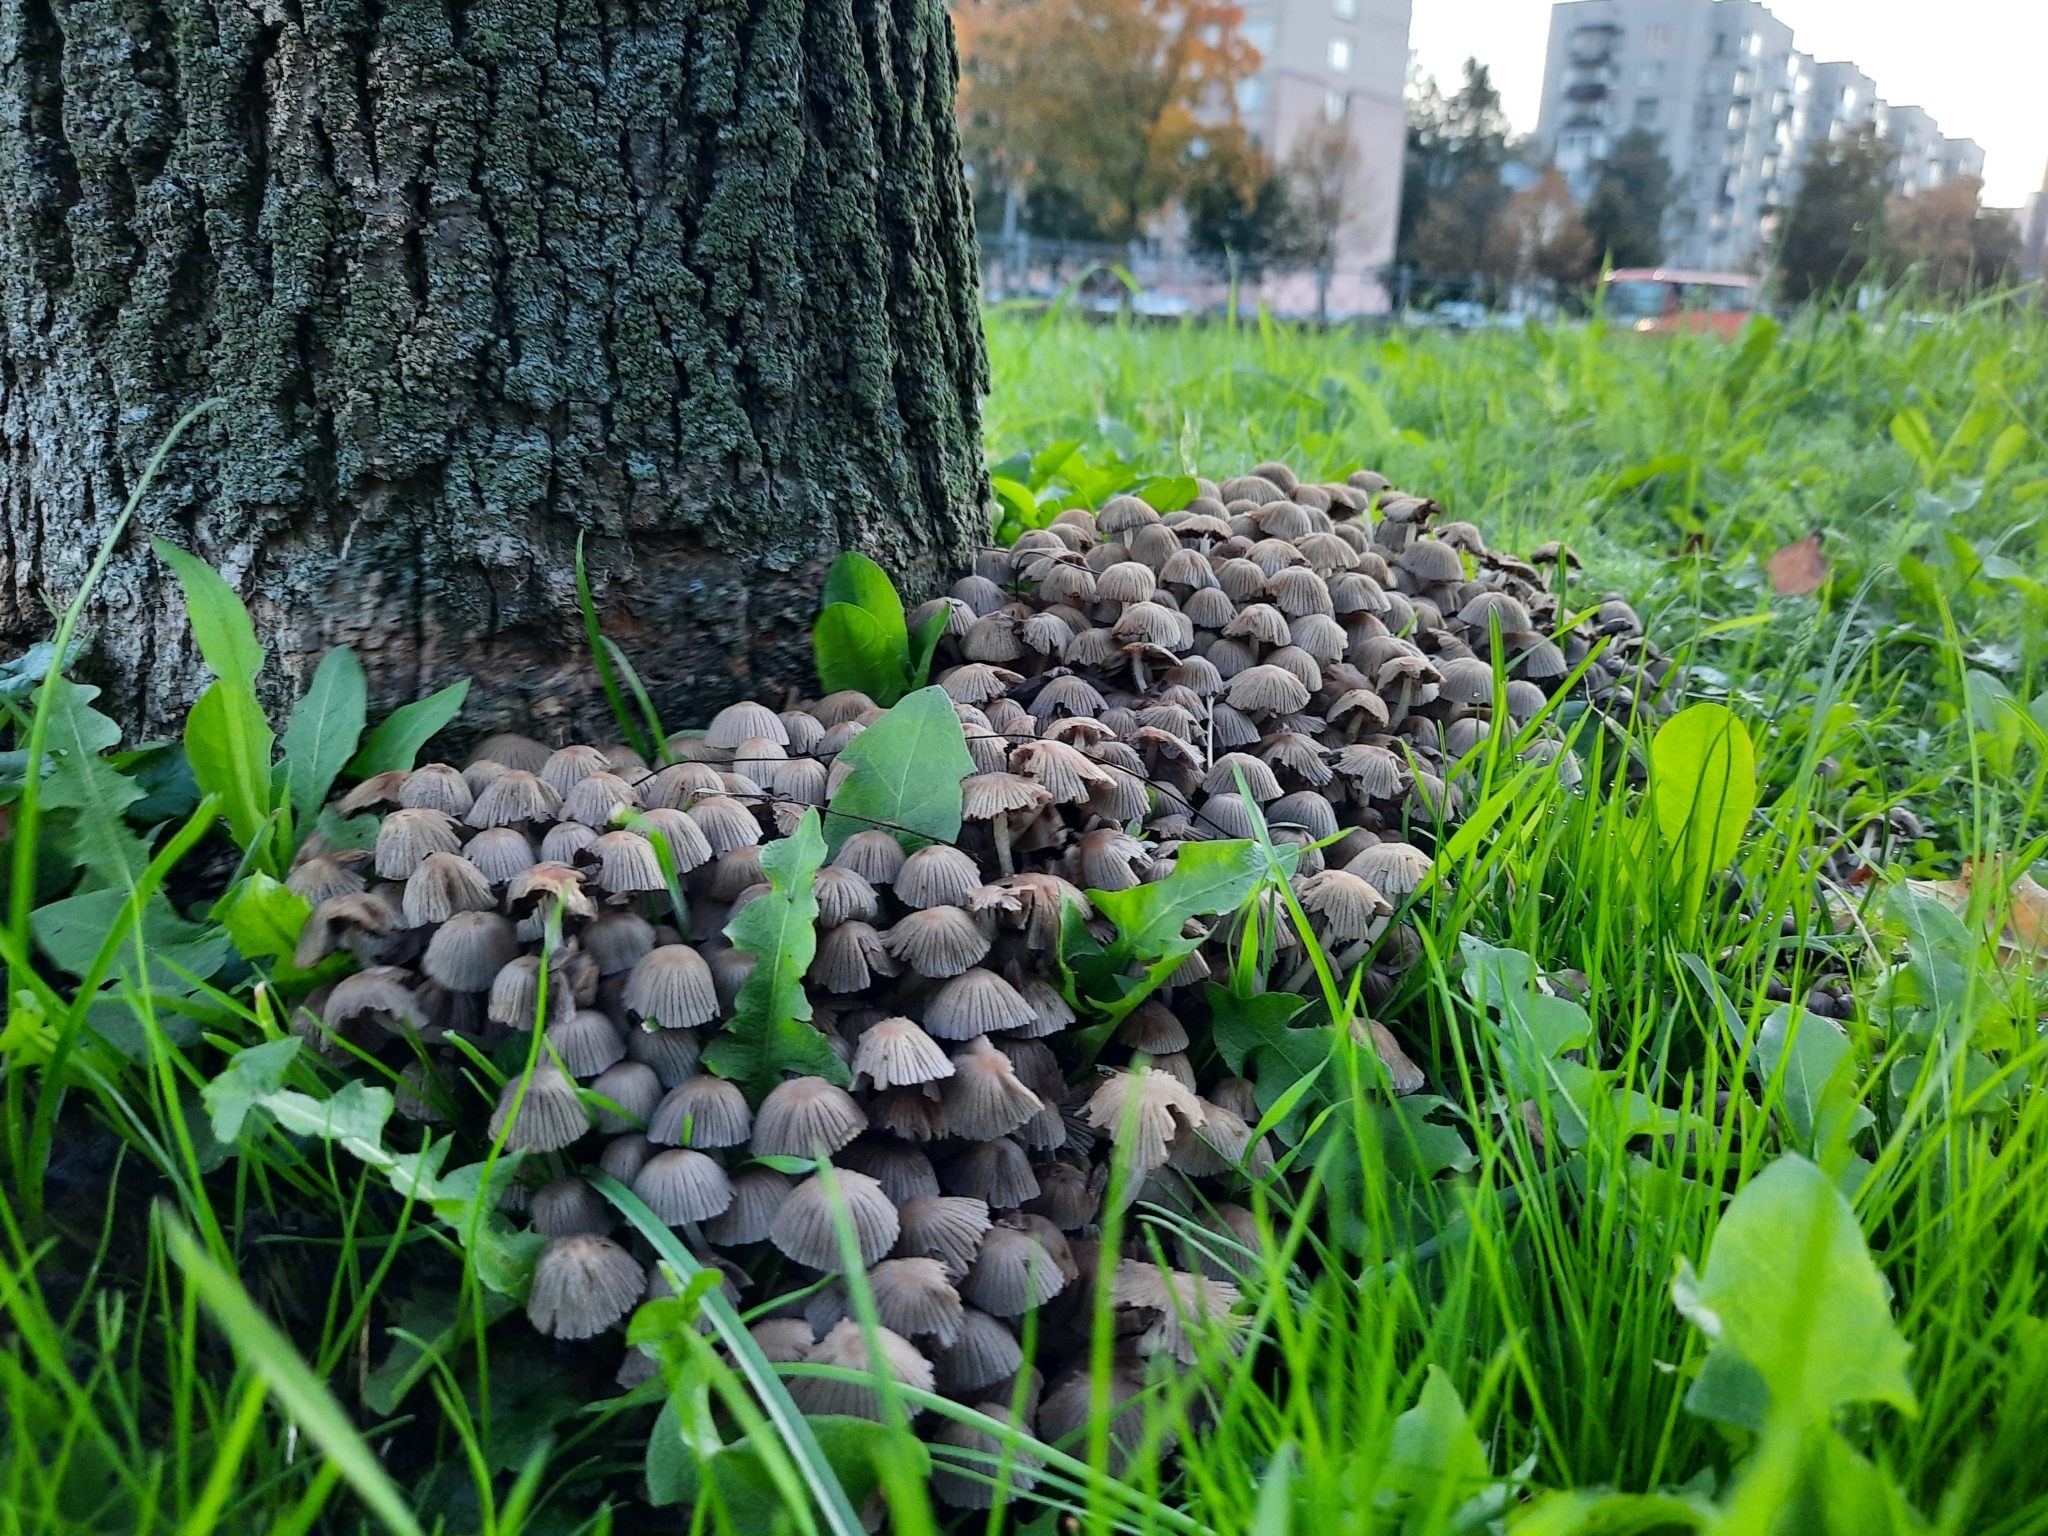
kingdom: Fungi
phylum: Basidiomycota
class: Agaricomycetes
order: Agaricales
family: Psathyrellaceae
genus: Coprinellus
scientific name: Coprinellus disseminatus
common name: Fairies' bonnets
